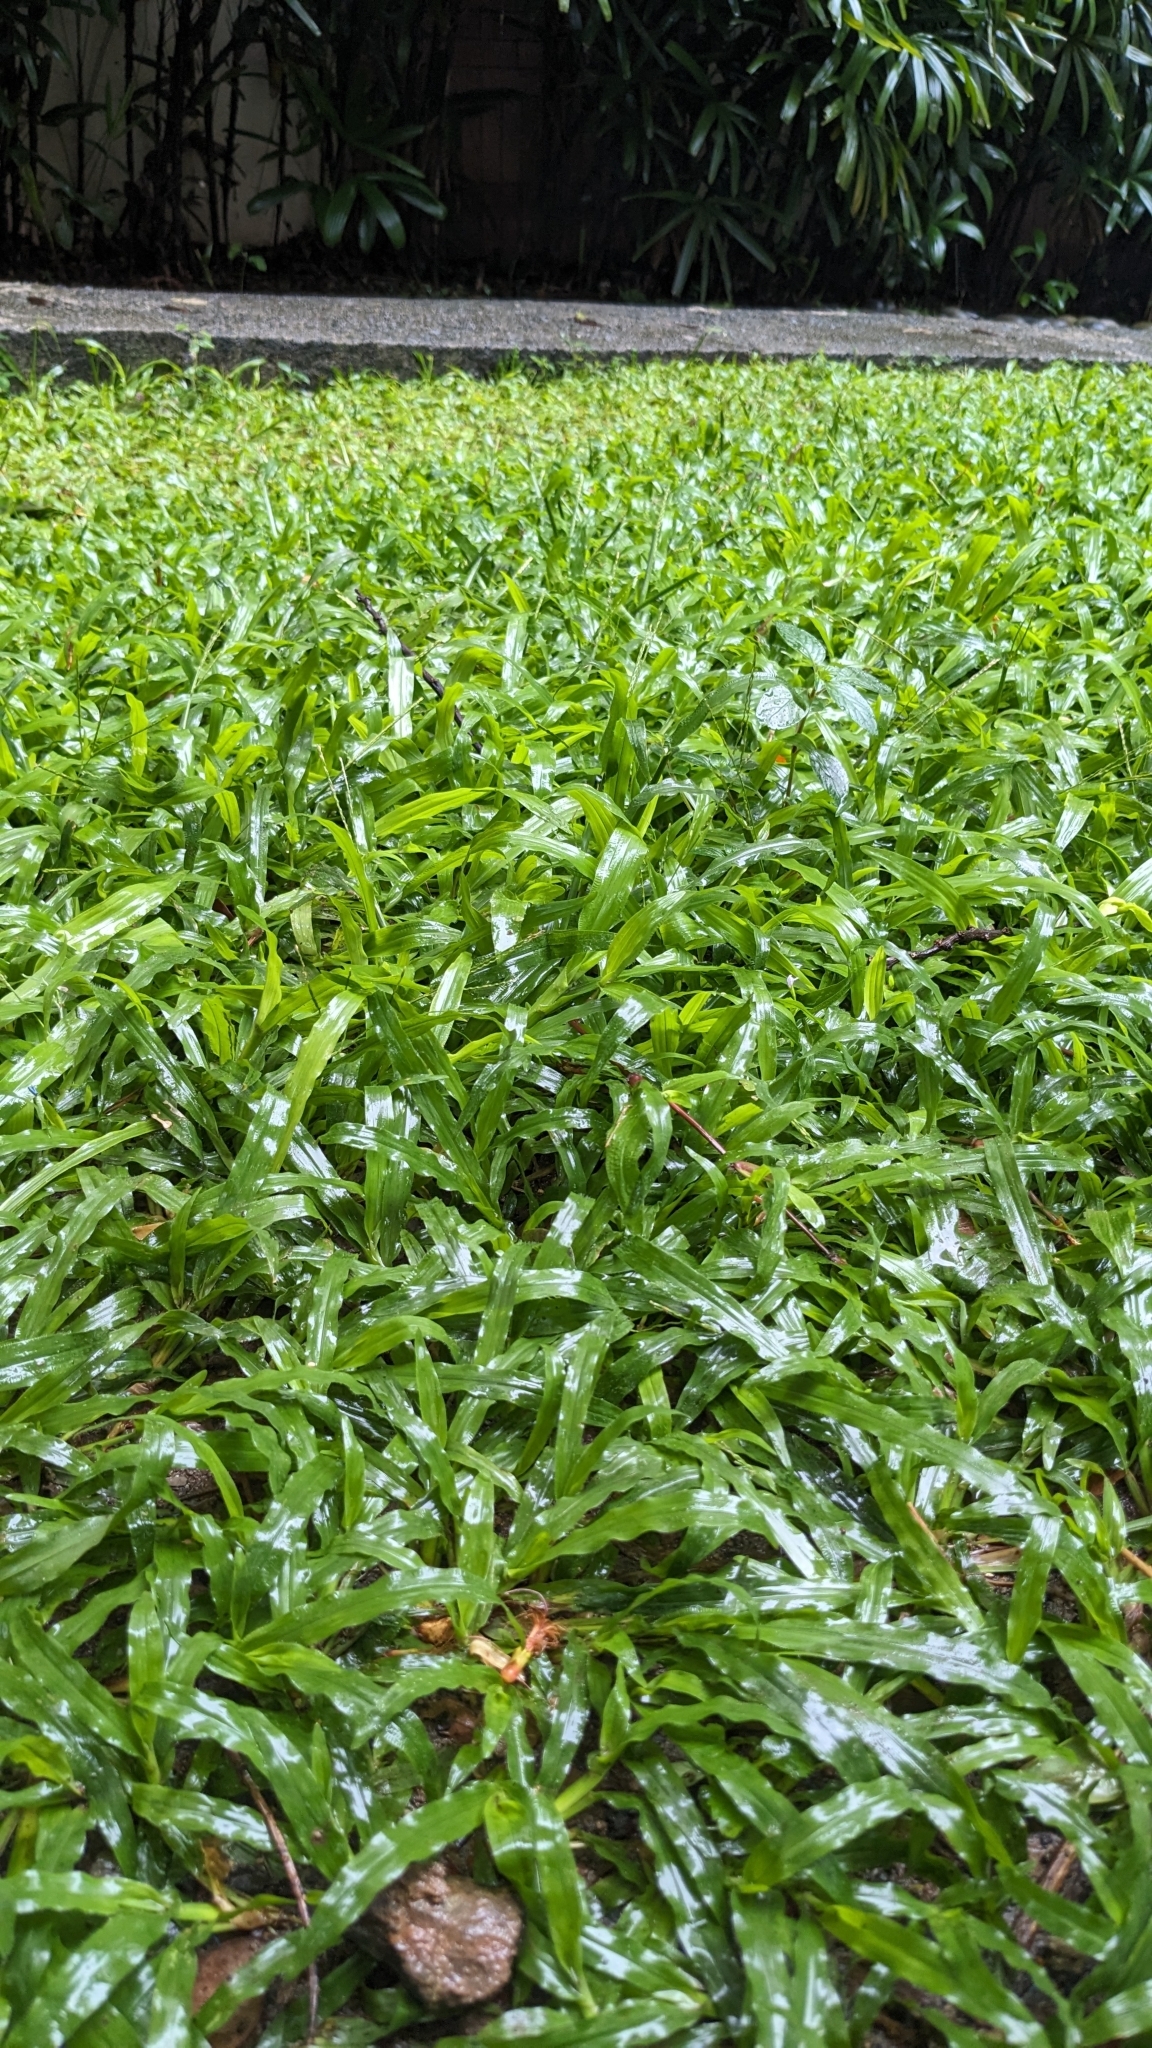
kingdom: Plantae
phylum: Tracheophyta
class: Liliopsida
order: Poales
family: Poaceae
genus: Axonopus
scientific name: Axonopus compressus
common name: American carpet grass
